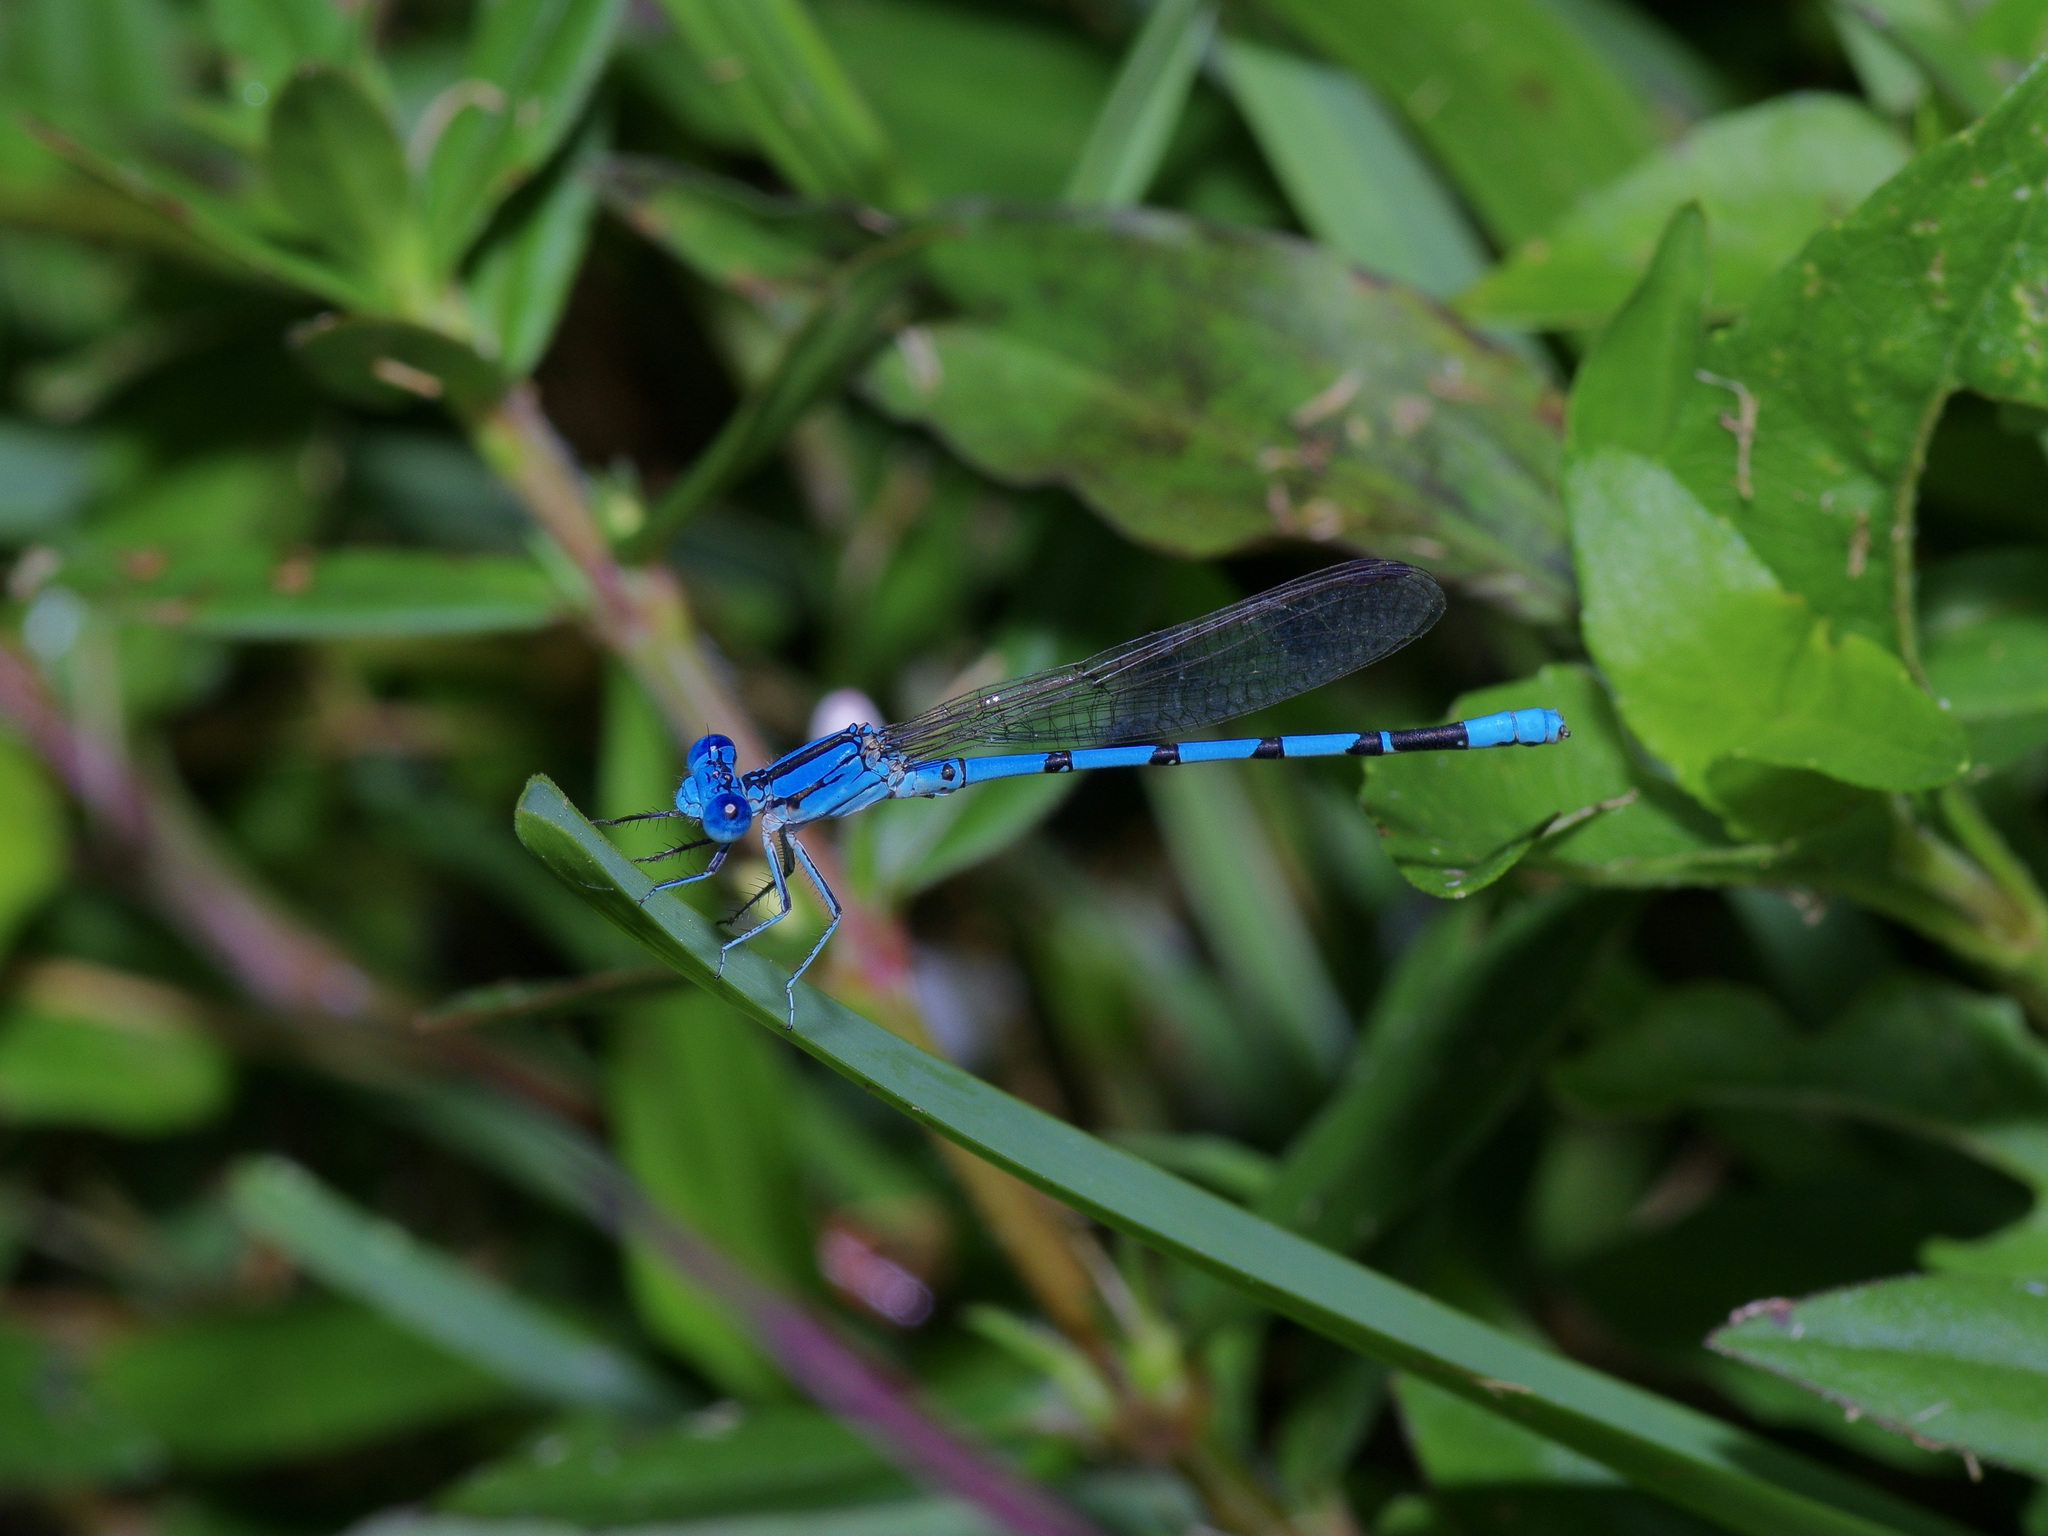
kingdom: Animalia
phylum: Arthropoda
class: Insecta
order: Odonata
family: Coenagrionidae
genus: Argia
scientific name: Argia nahuana
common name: Aztec dancer
